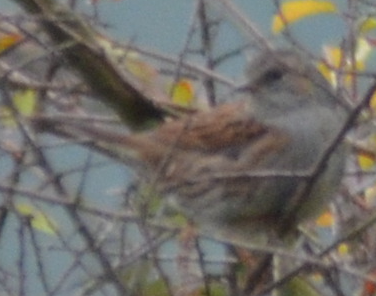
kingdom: Animalia
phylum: Chordata
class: Aves
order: Passeriformes
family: Prunellidae
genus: Prunella
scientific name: Prunella modularis
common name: Dunnock
